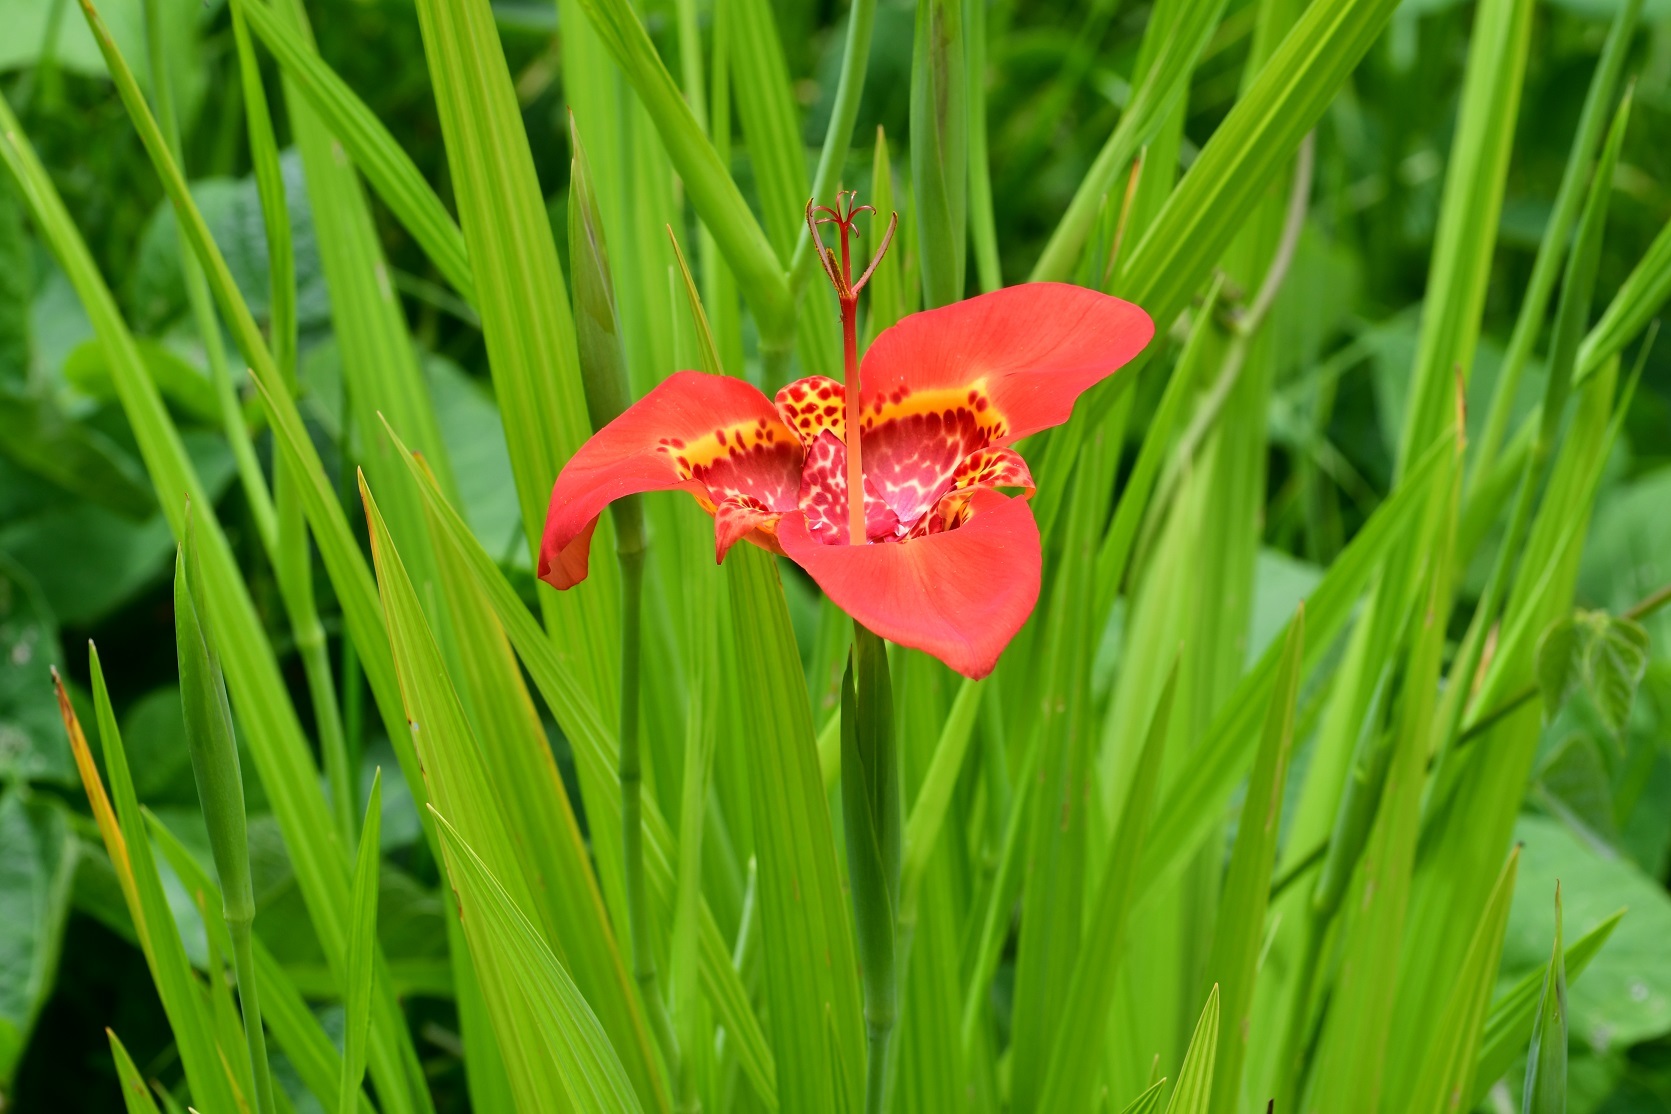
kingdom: Plantae
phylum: Tracheophyta
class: Liliopsida
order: Asparagales
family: Iridaceae
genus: Tigridia
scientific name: Tigridia pavonia
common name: Peacock-flower
